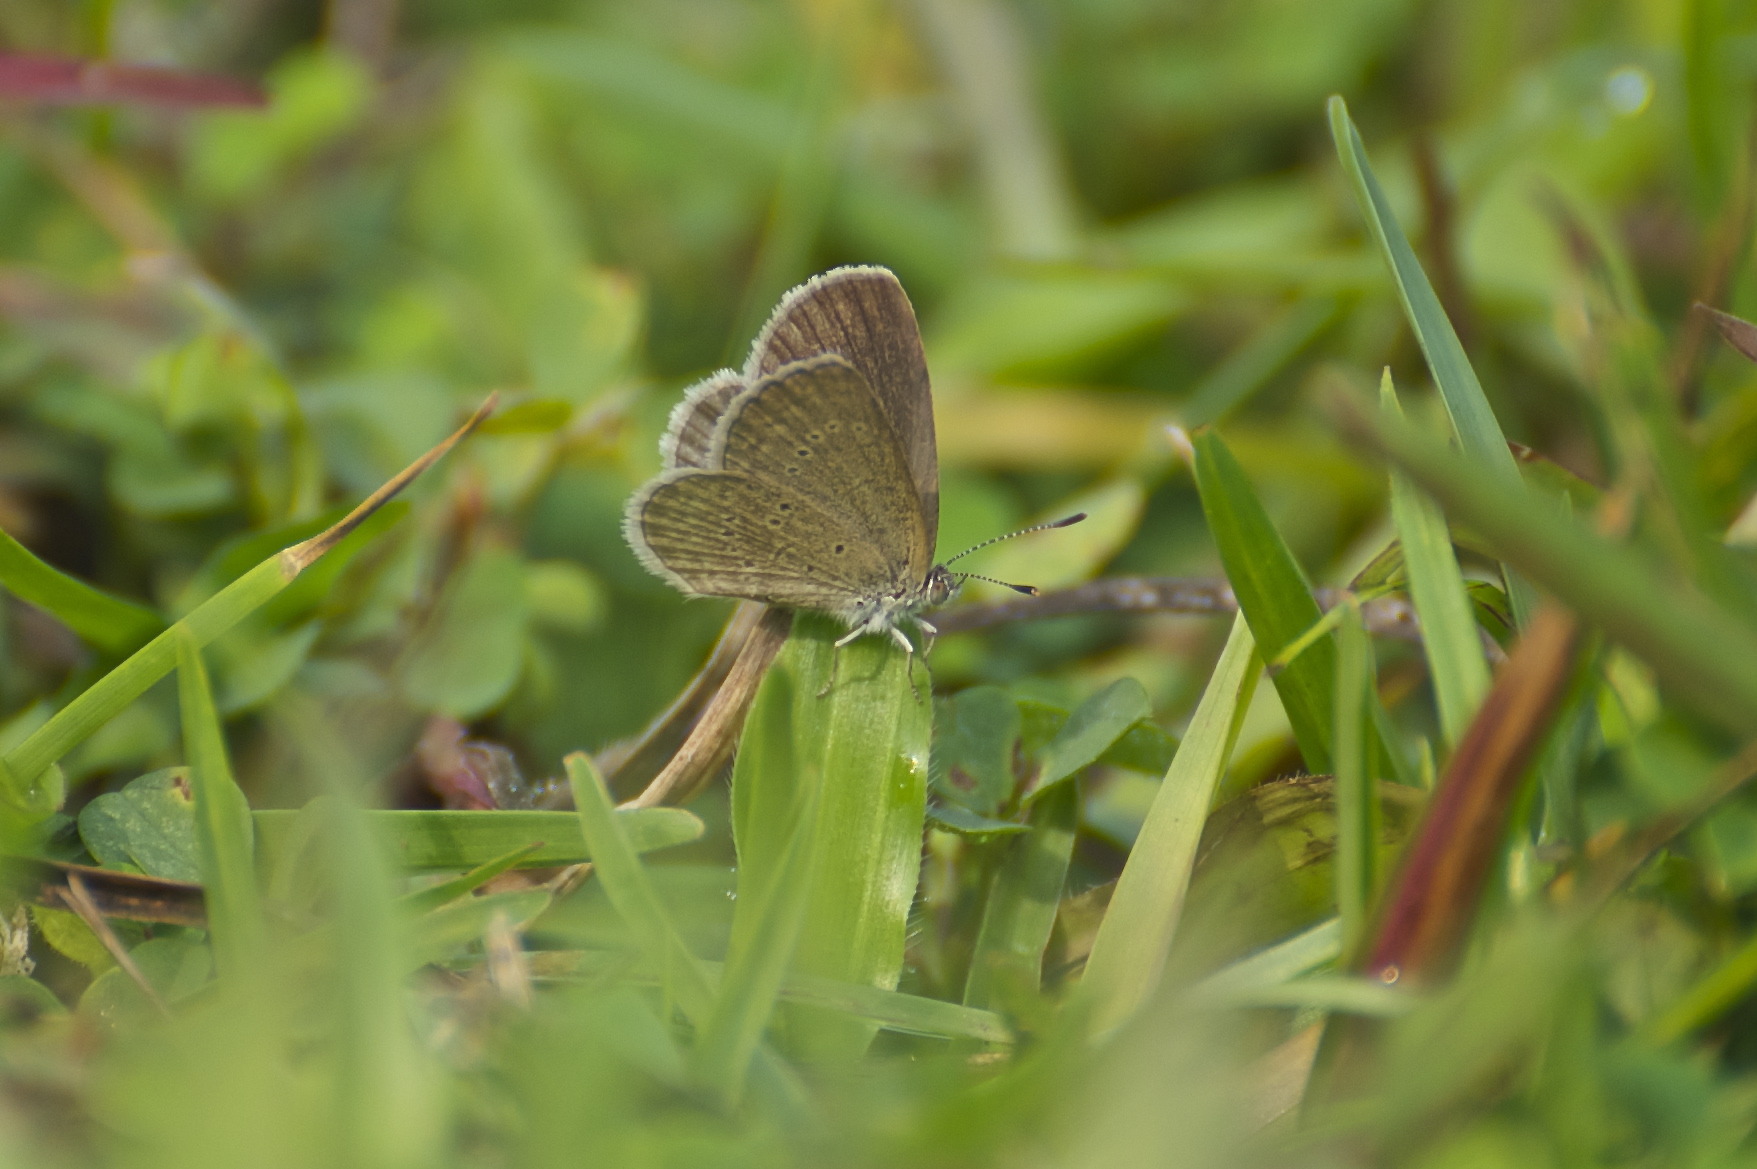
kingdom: Animalia
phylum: Arthropoda
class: Insecta
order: Lepidoptera
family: Lycaenidae
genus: Zizina
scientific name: Zizina otis
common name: Lesser grass blue
